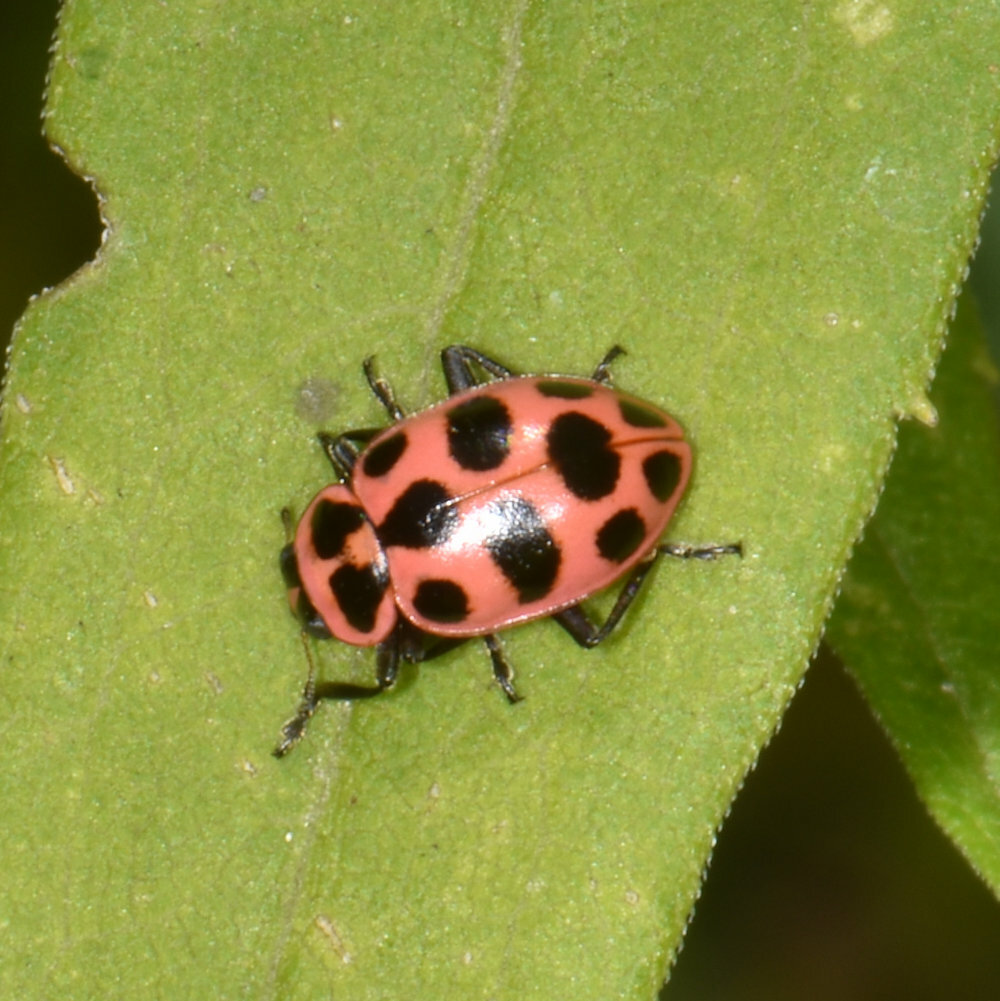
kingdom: Animalia
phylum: Arthropoda
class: Insecta
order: Coleoptera
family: Coccinellidae
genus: Coleomegilla
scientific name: Coleomegilla maculata
